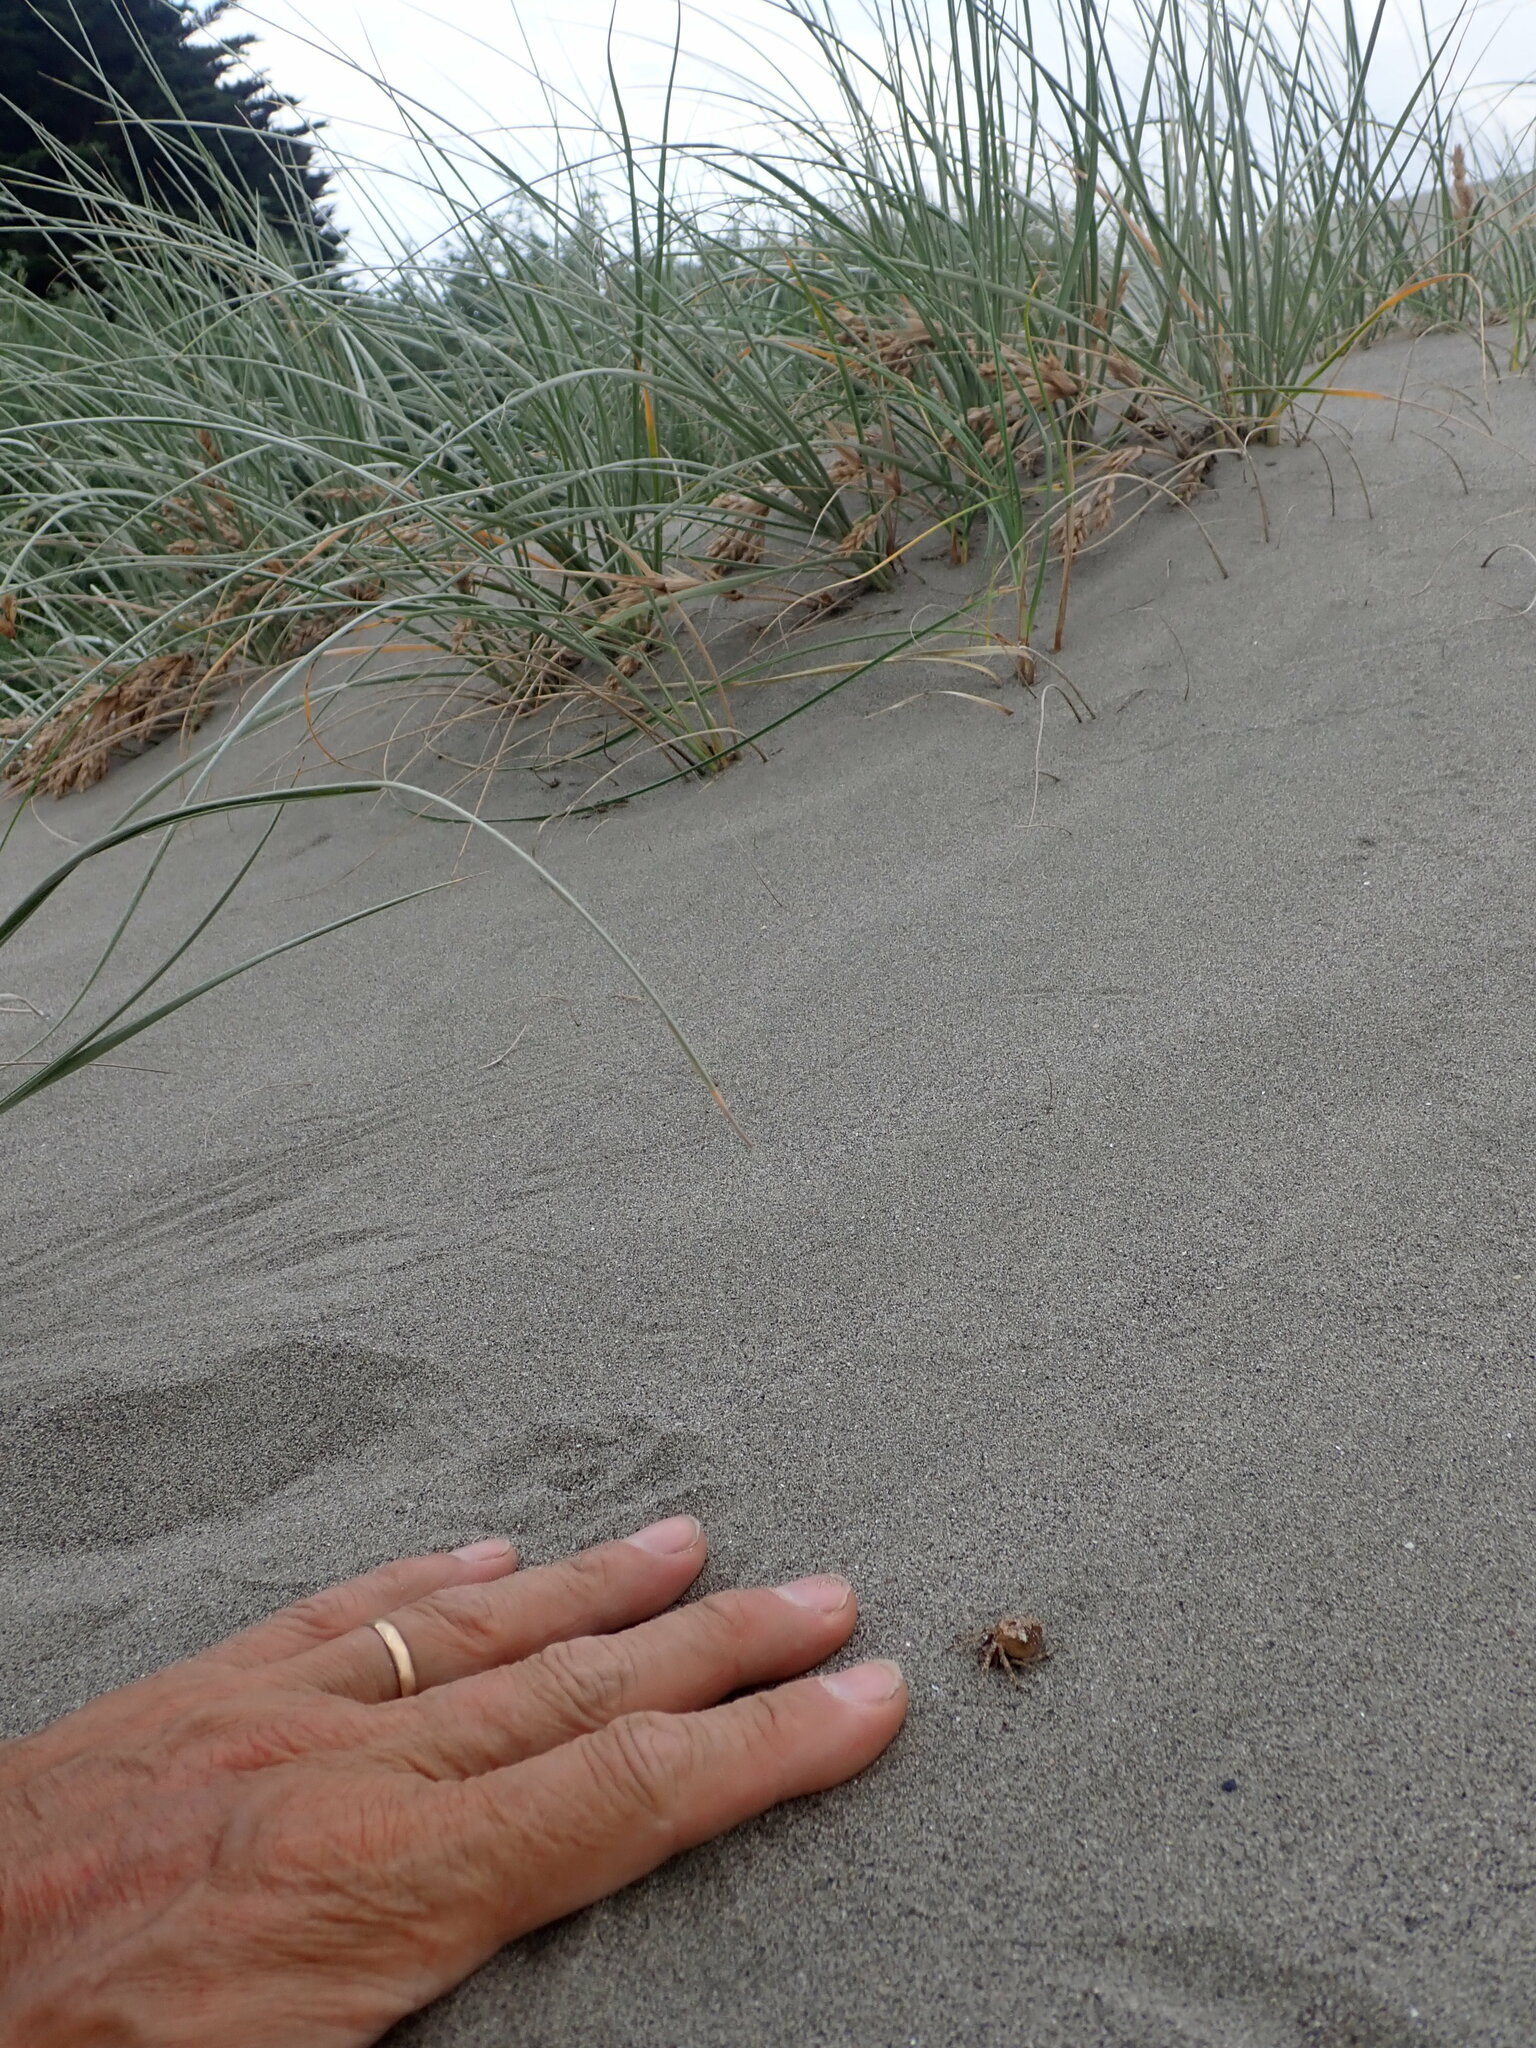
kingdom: Animalia
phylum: Arthropoda
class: Arachnida
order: Araneae
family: Araneidae
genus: Eriophora
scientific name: Eriophora pustulosa
